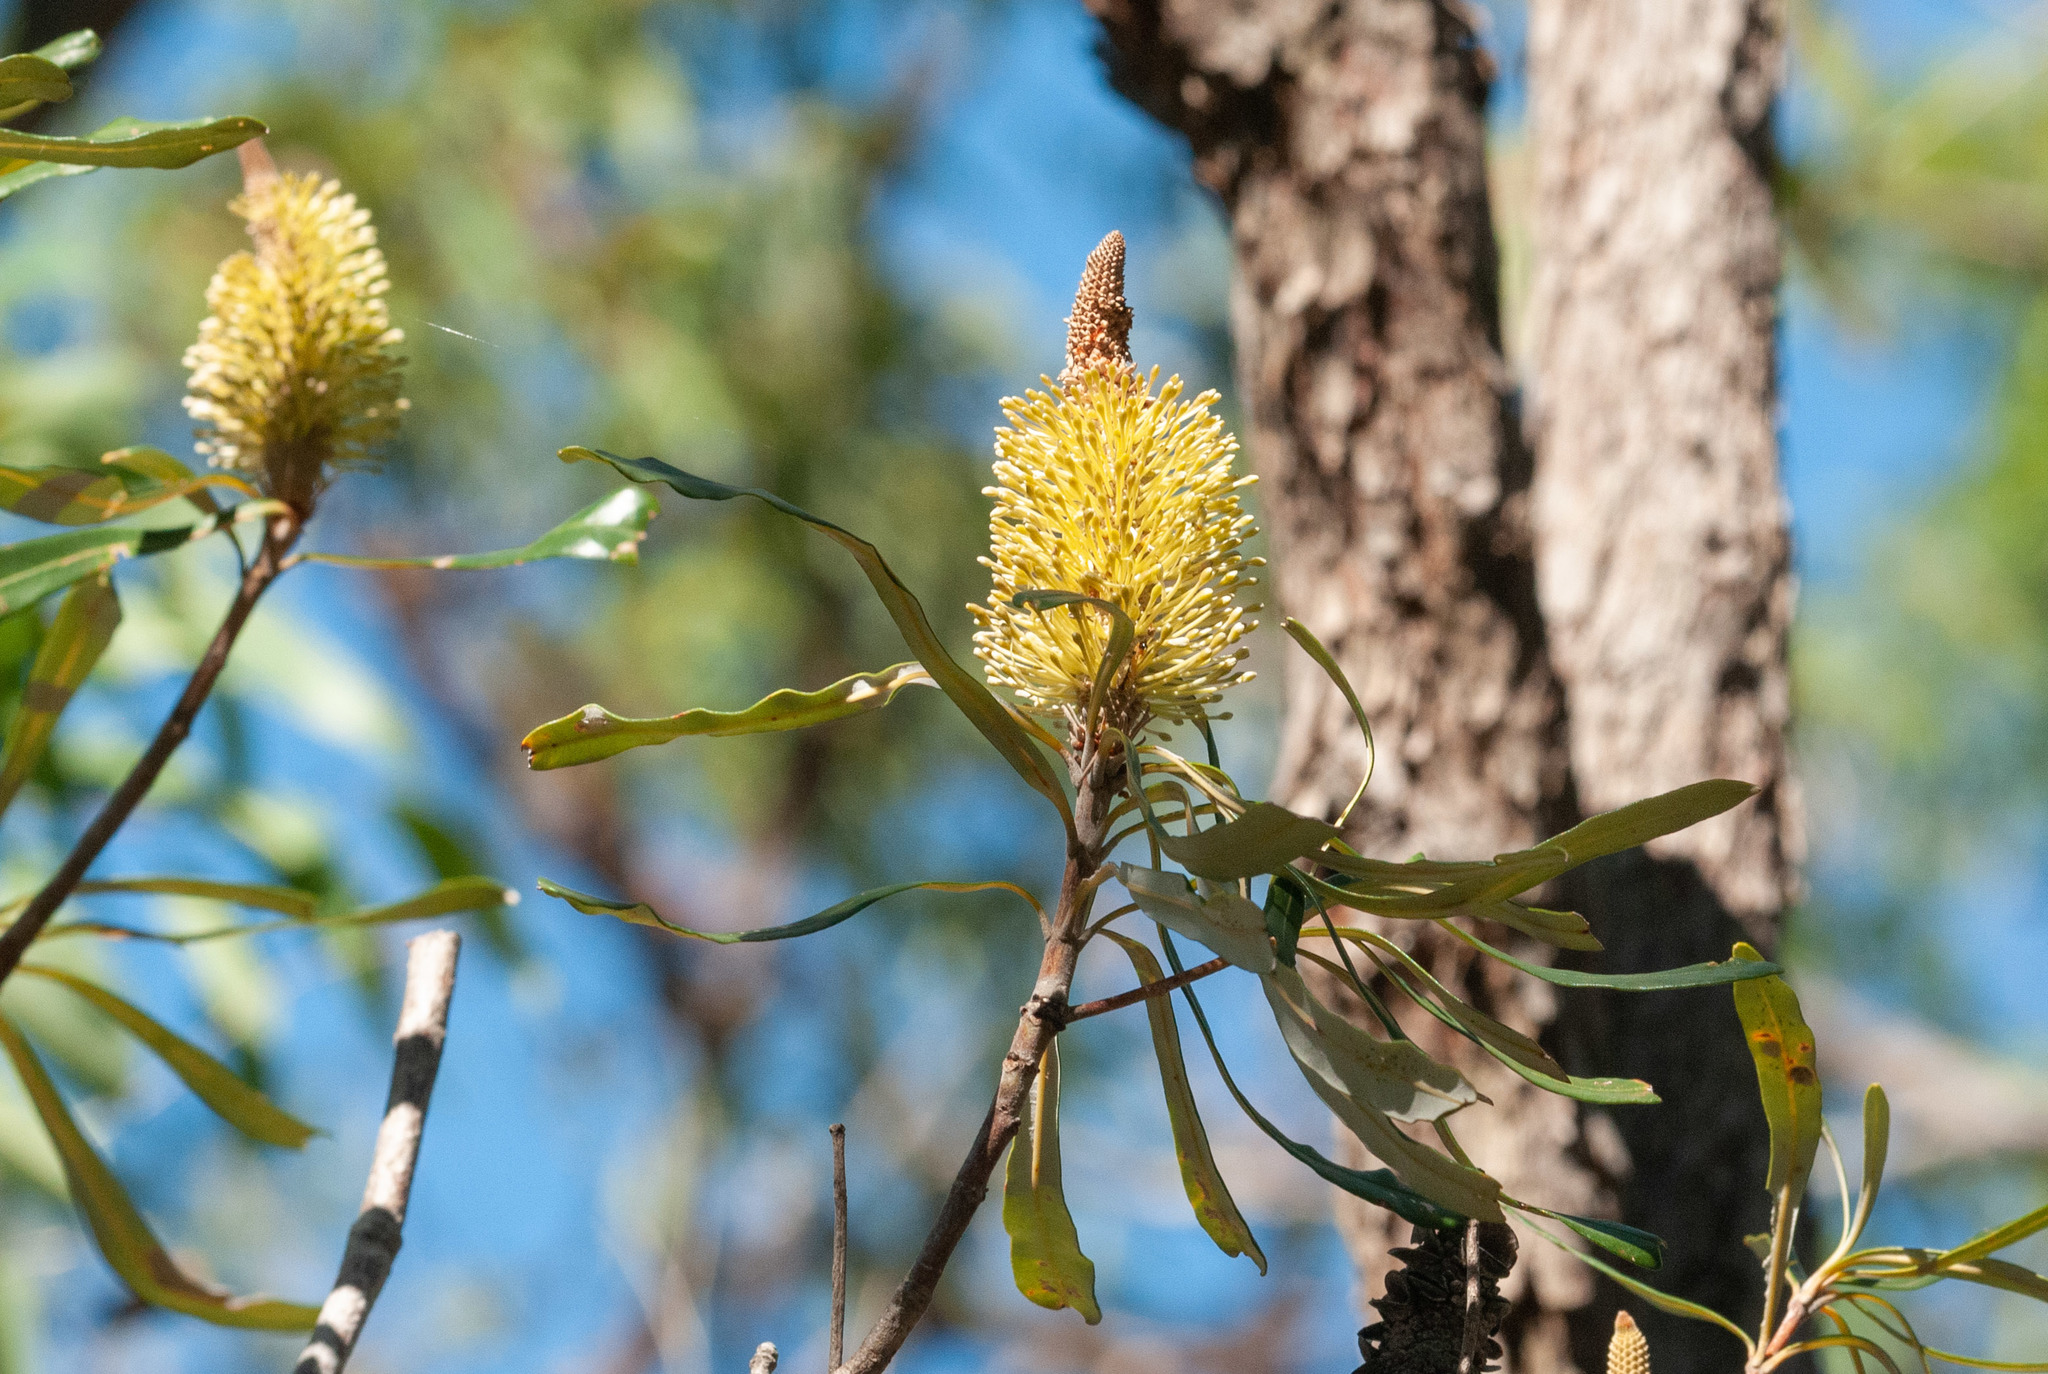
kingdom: Plantae
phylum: Tracheophyta
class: Magnoliopsida
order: Proteales
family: Proteaceae
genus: Banksia
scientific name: Banksia integrifolia
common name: White-honeysuckle
